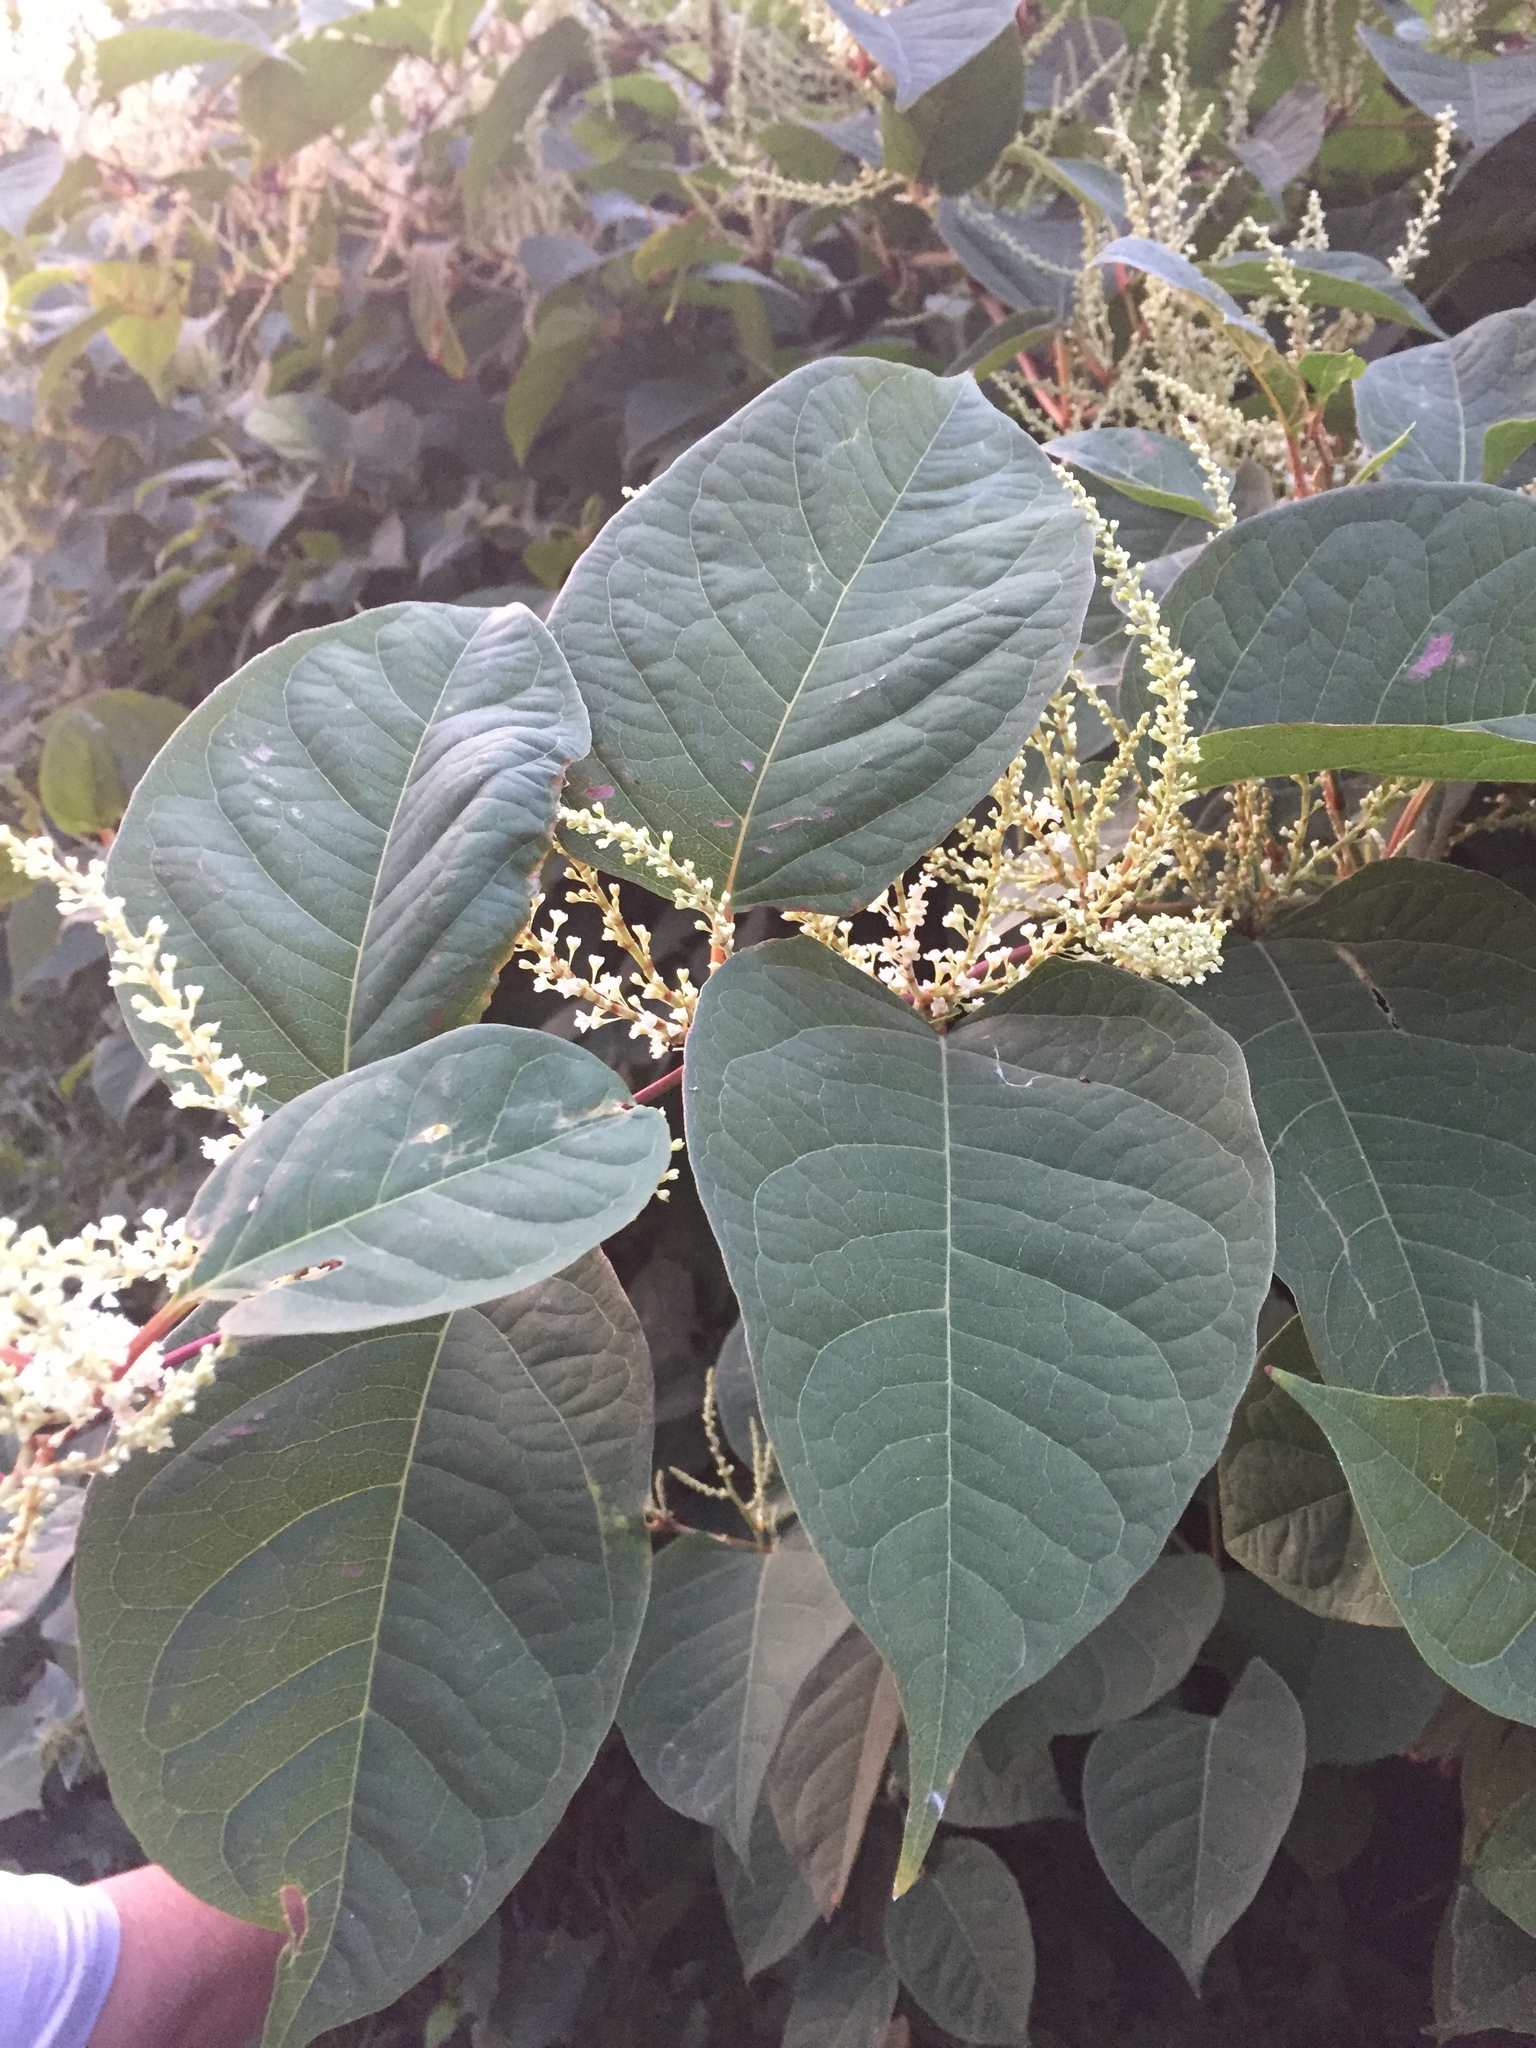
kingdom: Plantae
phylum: Tracheophyta
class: Magnoliopsida
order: Caryophyllales
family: Polygonaceae
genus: Reynoutria
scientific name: Reynoutria japonica
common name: Japanese knotweed
